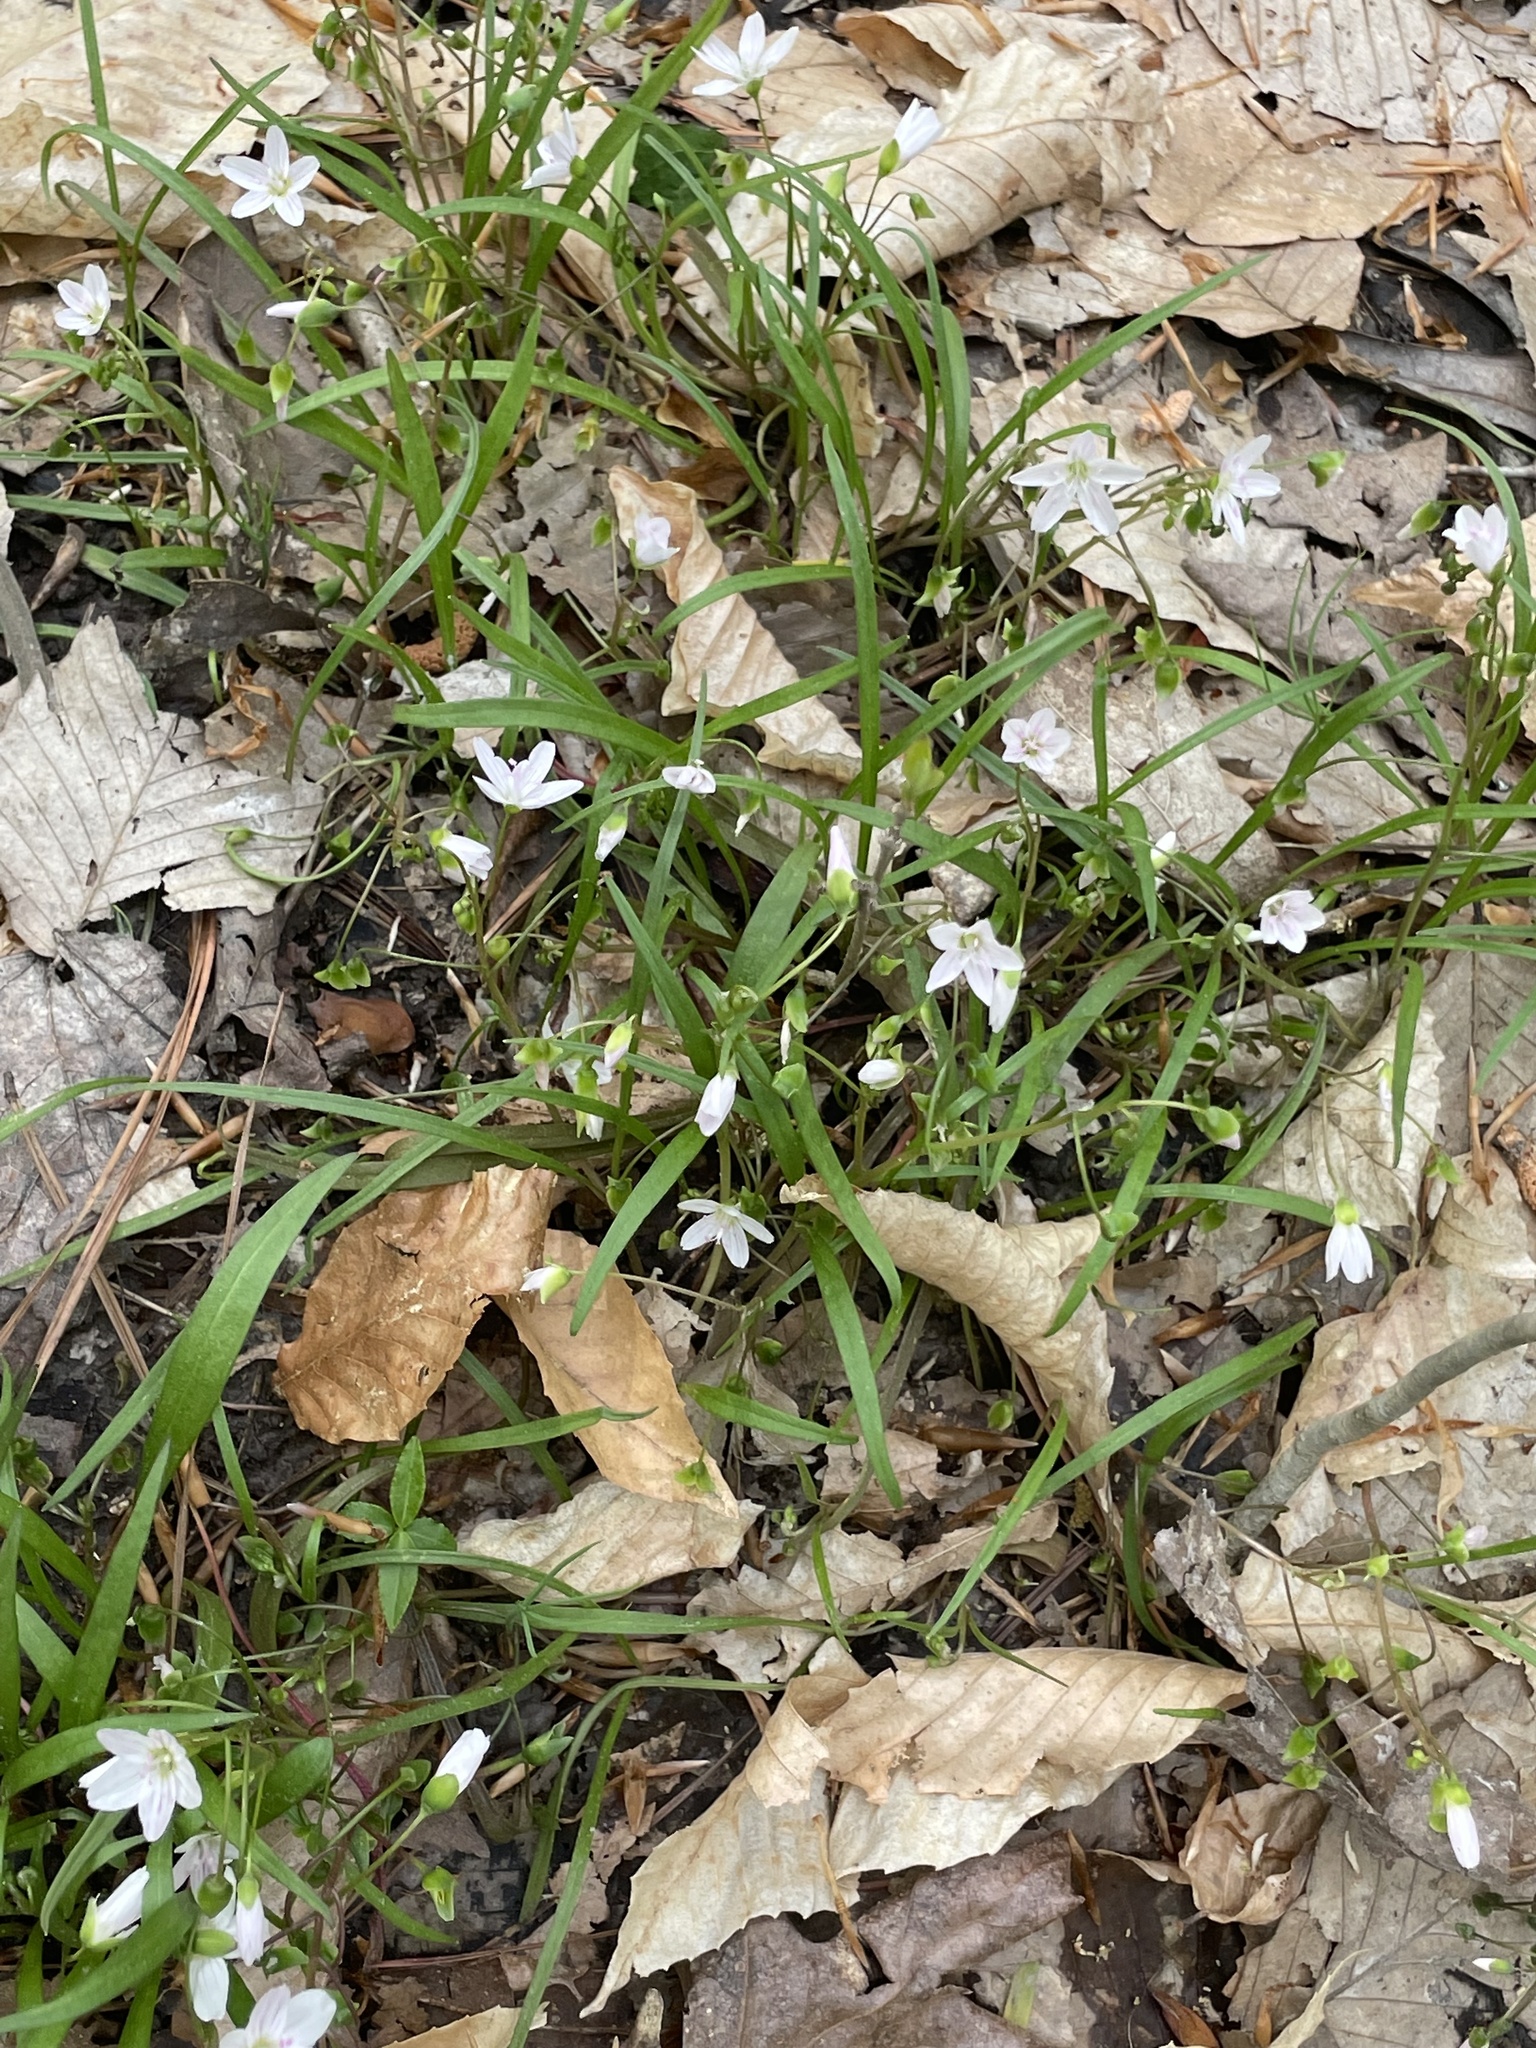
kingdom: Plantae
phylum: Tracheophyta
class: Magnoliopsida
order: Caryophyllales
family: Montiaceae
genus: Claytonia
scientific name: Claytonia virginica
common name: Virginia springbeauty
